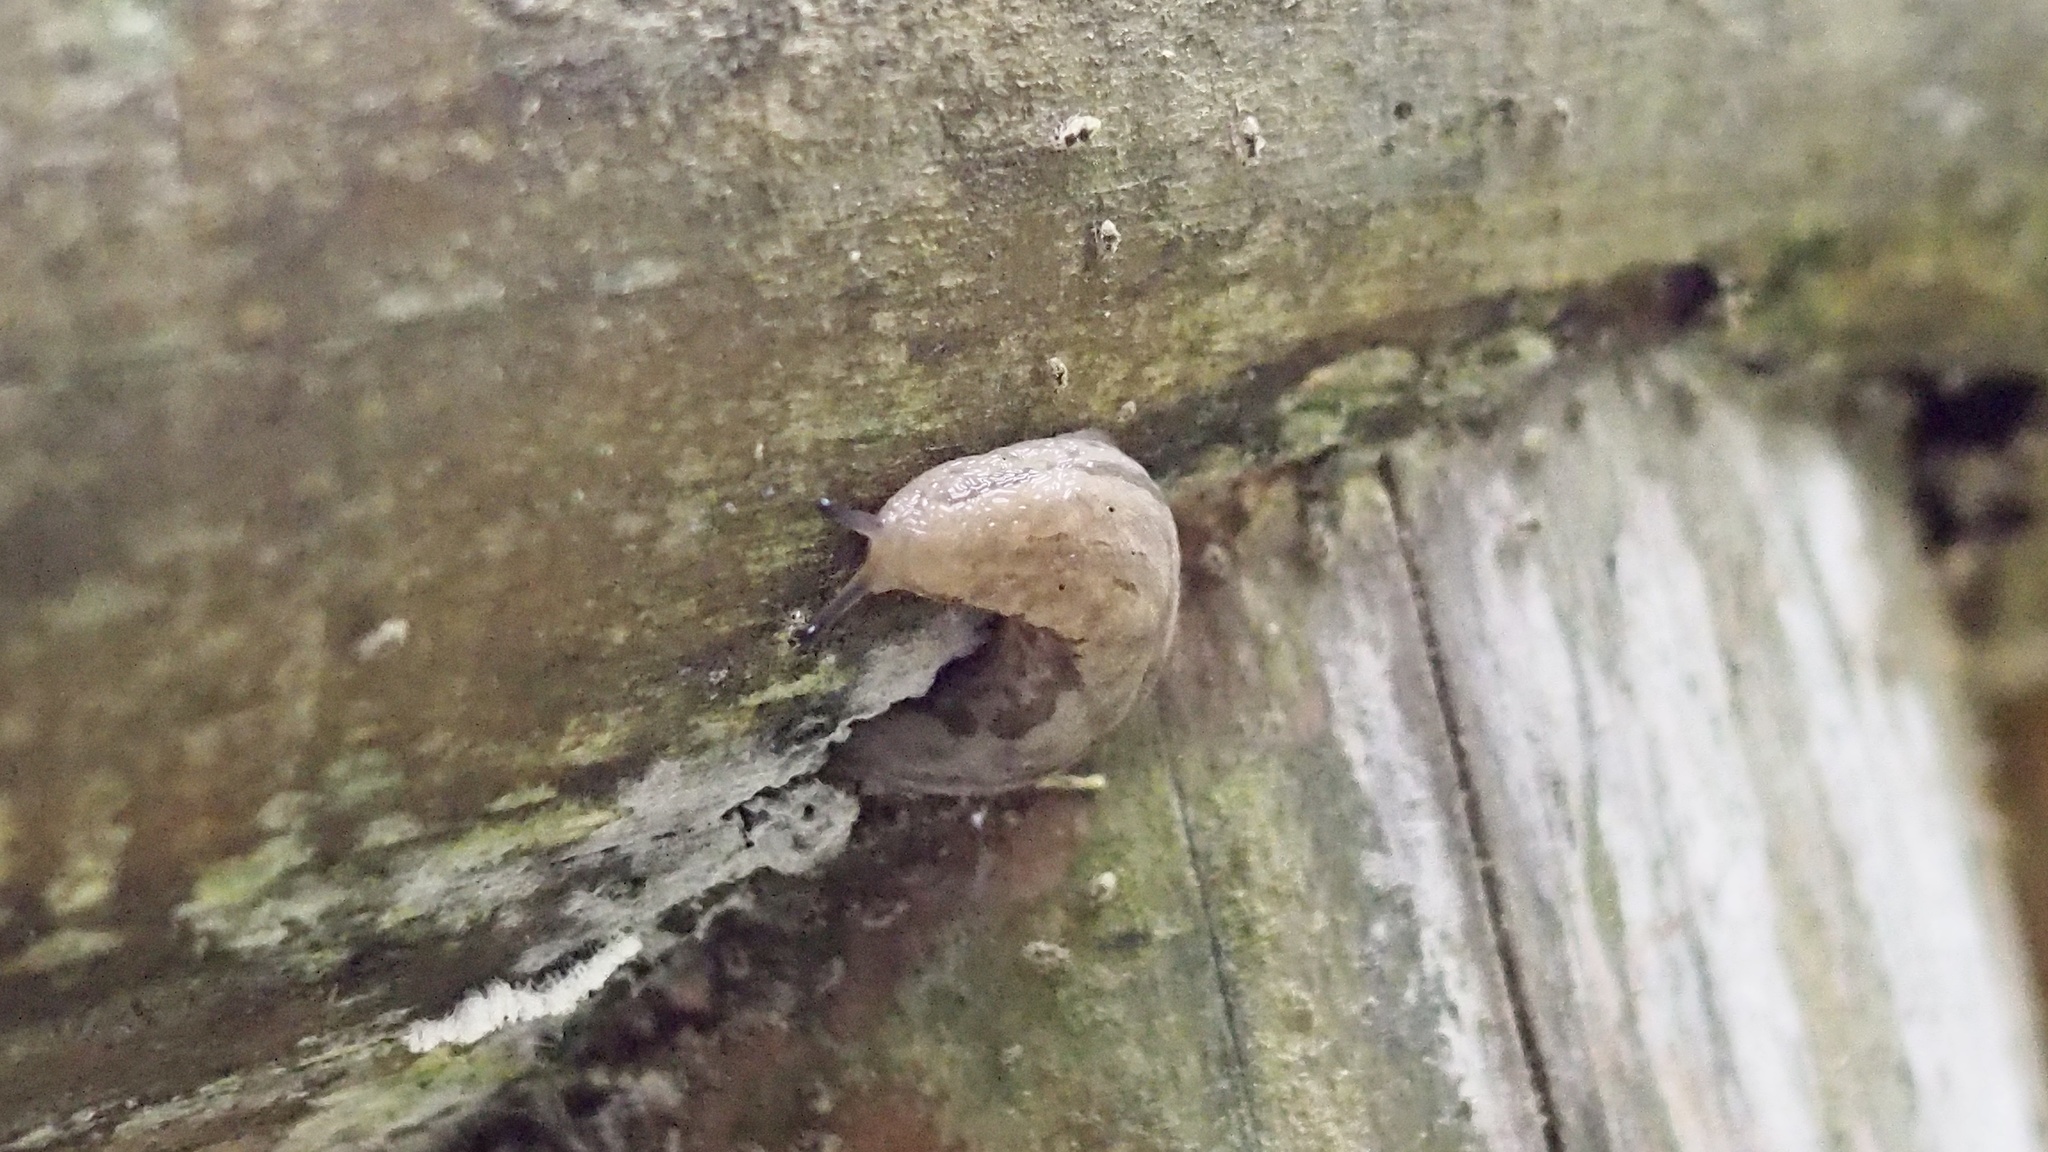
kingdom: Animalia
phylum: Mollusca
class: Gastropoda
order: Stylommatophora
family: Philomycidae
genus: Meghimatium
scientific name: Meghimatium fruhstorferi
